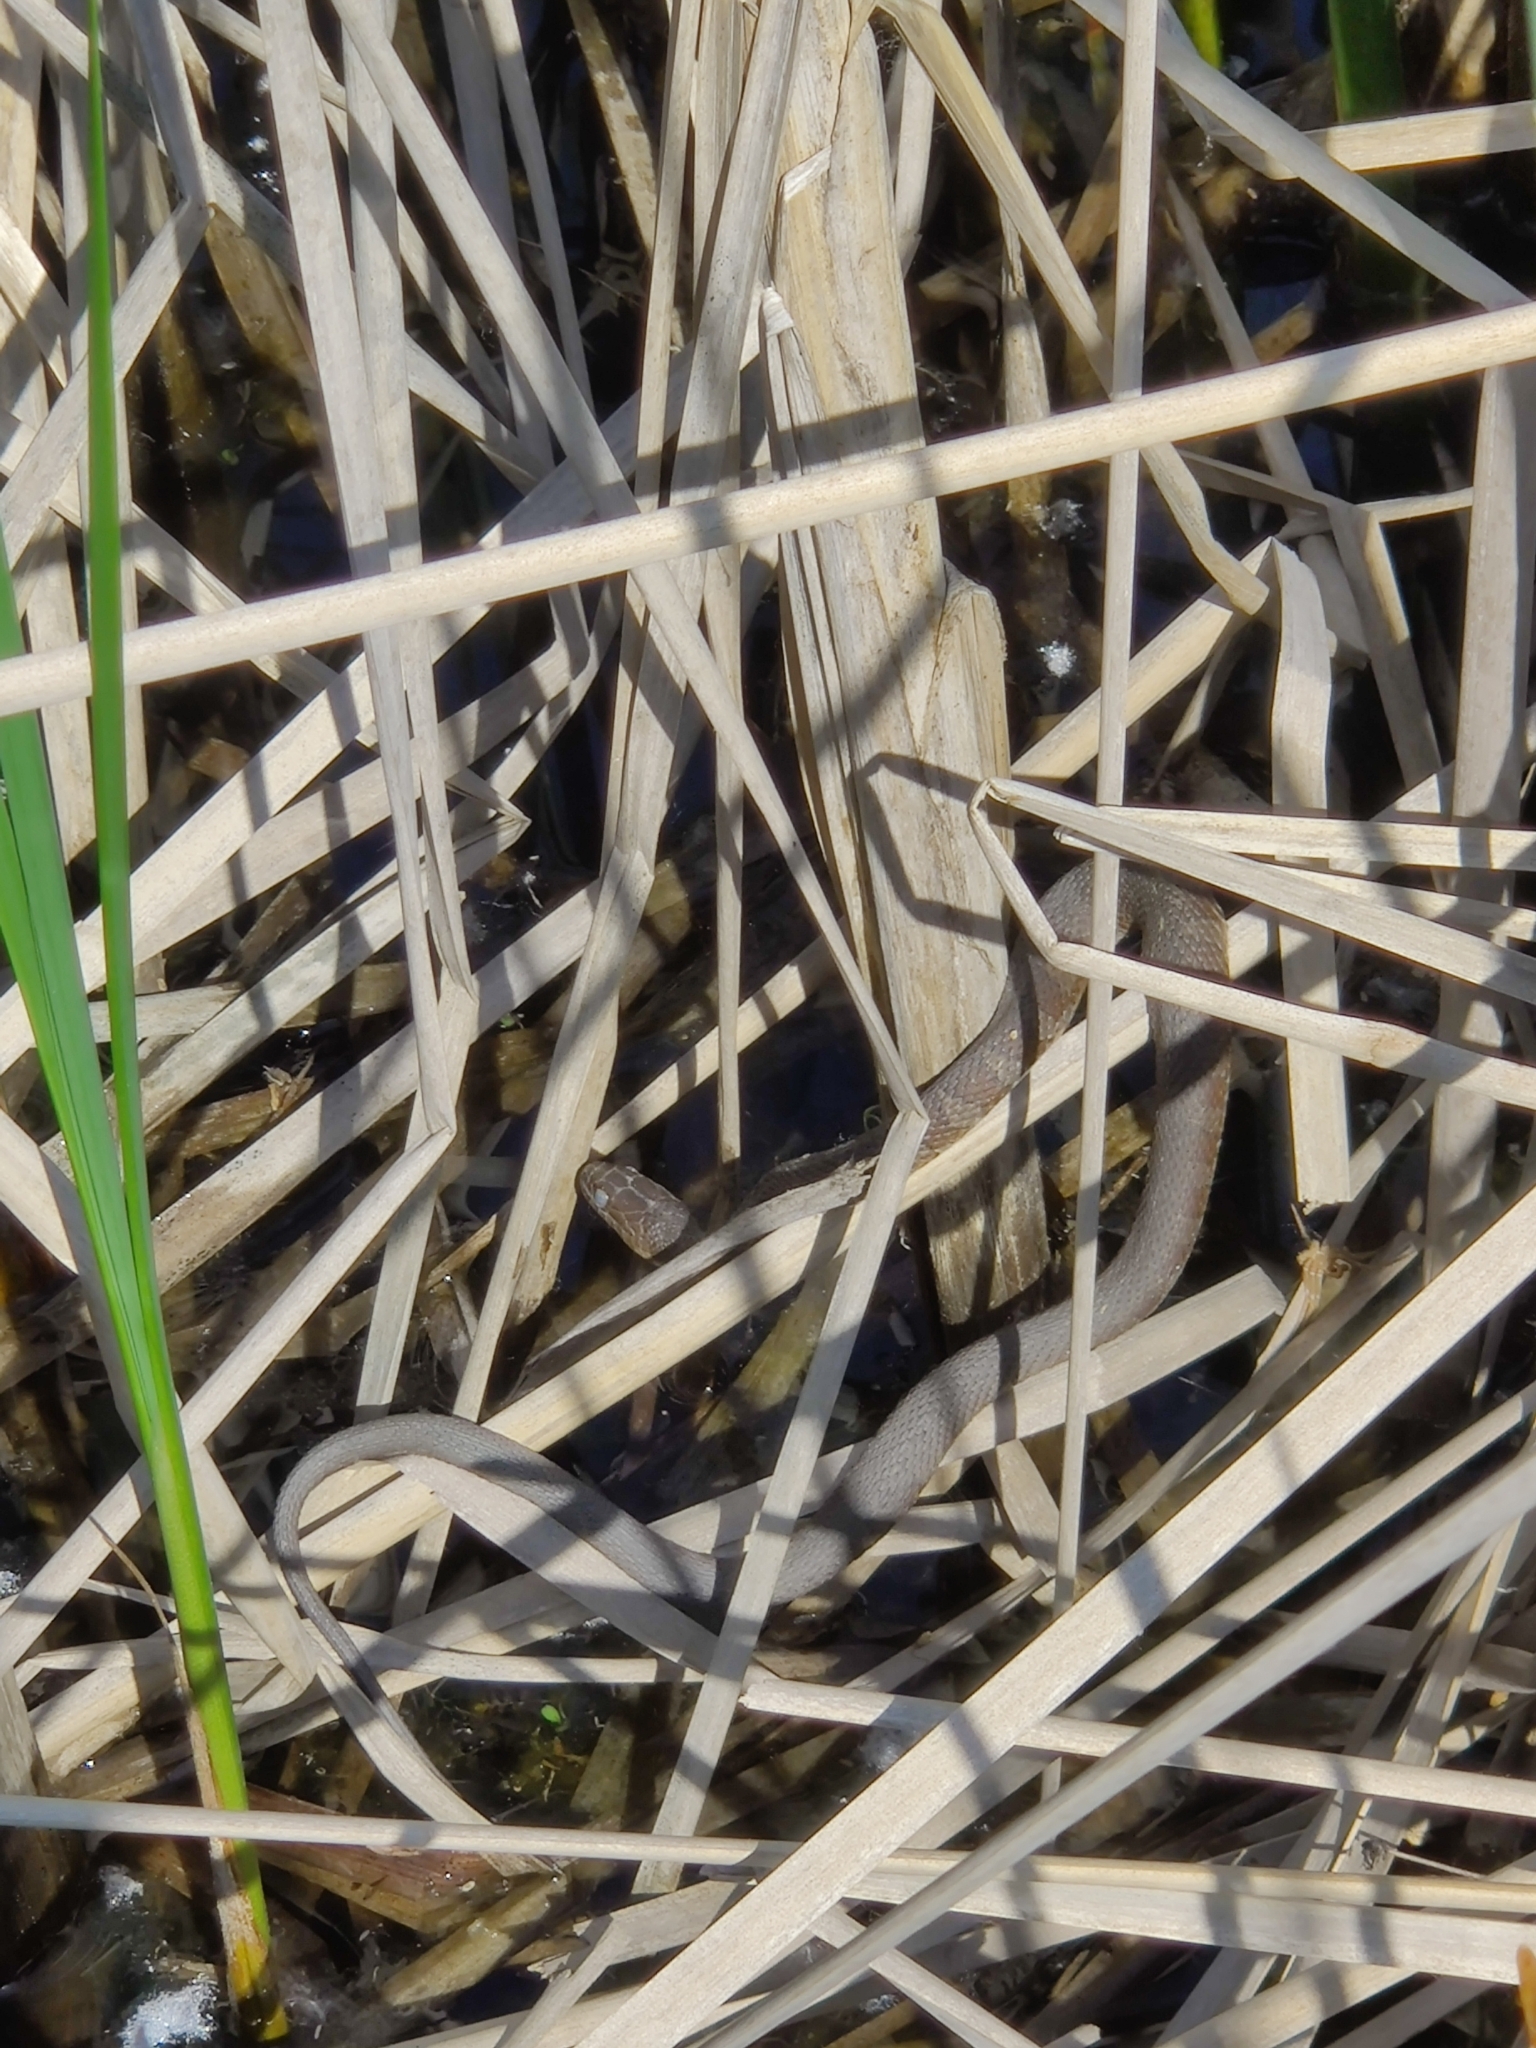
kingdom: Animalia
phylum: Chordata
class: Squamata
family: Colubridae
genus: Nerodia
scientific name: Nerodia sipedon
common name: Northern water snake
